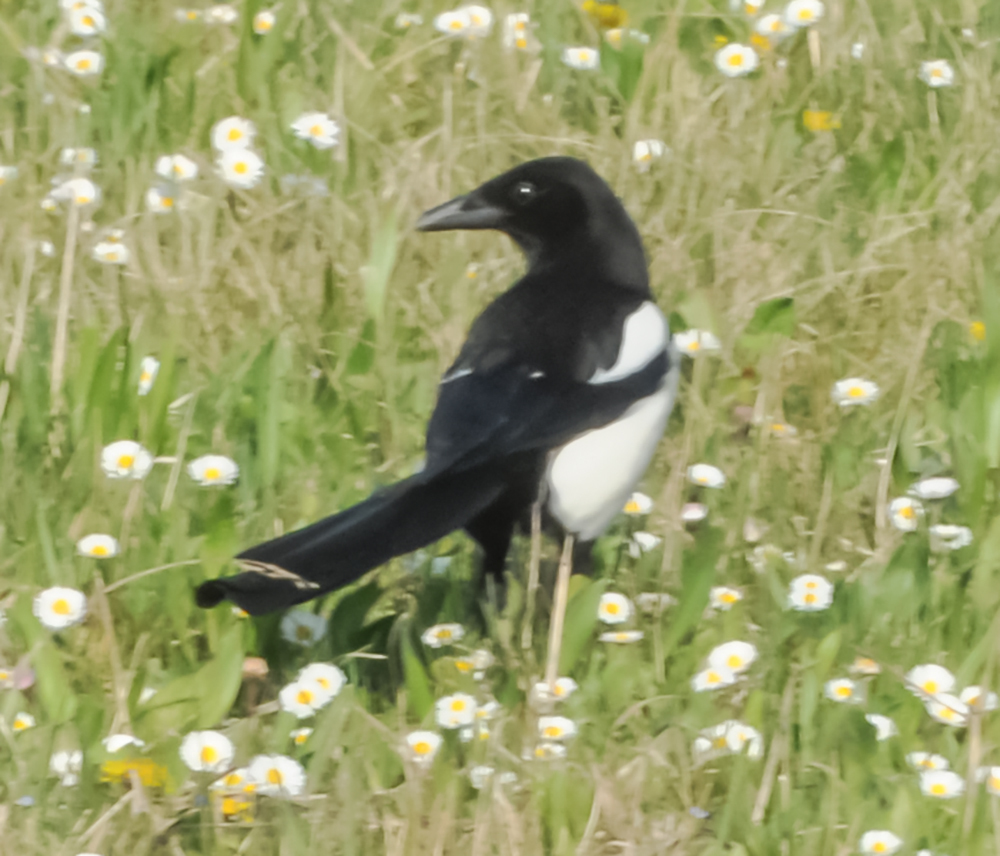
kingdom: Animalia
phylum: Chordata
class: Aves
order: Passeriformes
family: Corvidae
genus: Pica
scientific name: Pica pica
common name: Eurasian magpie
